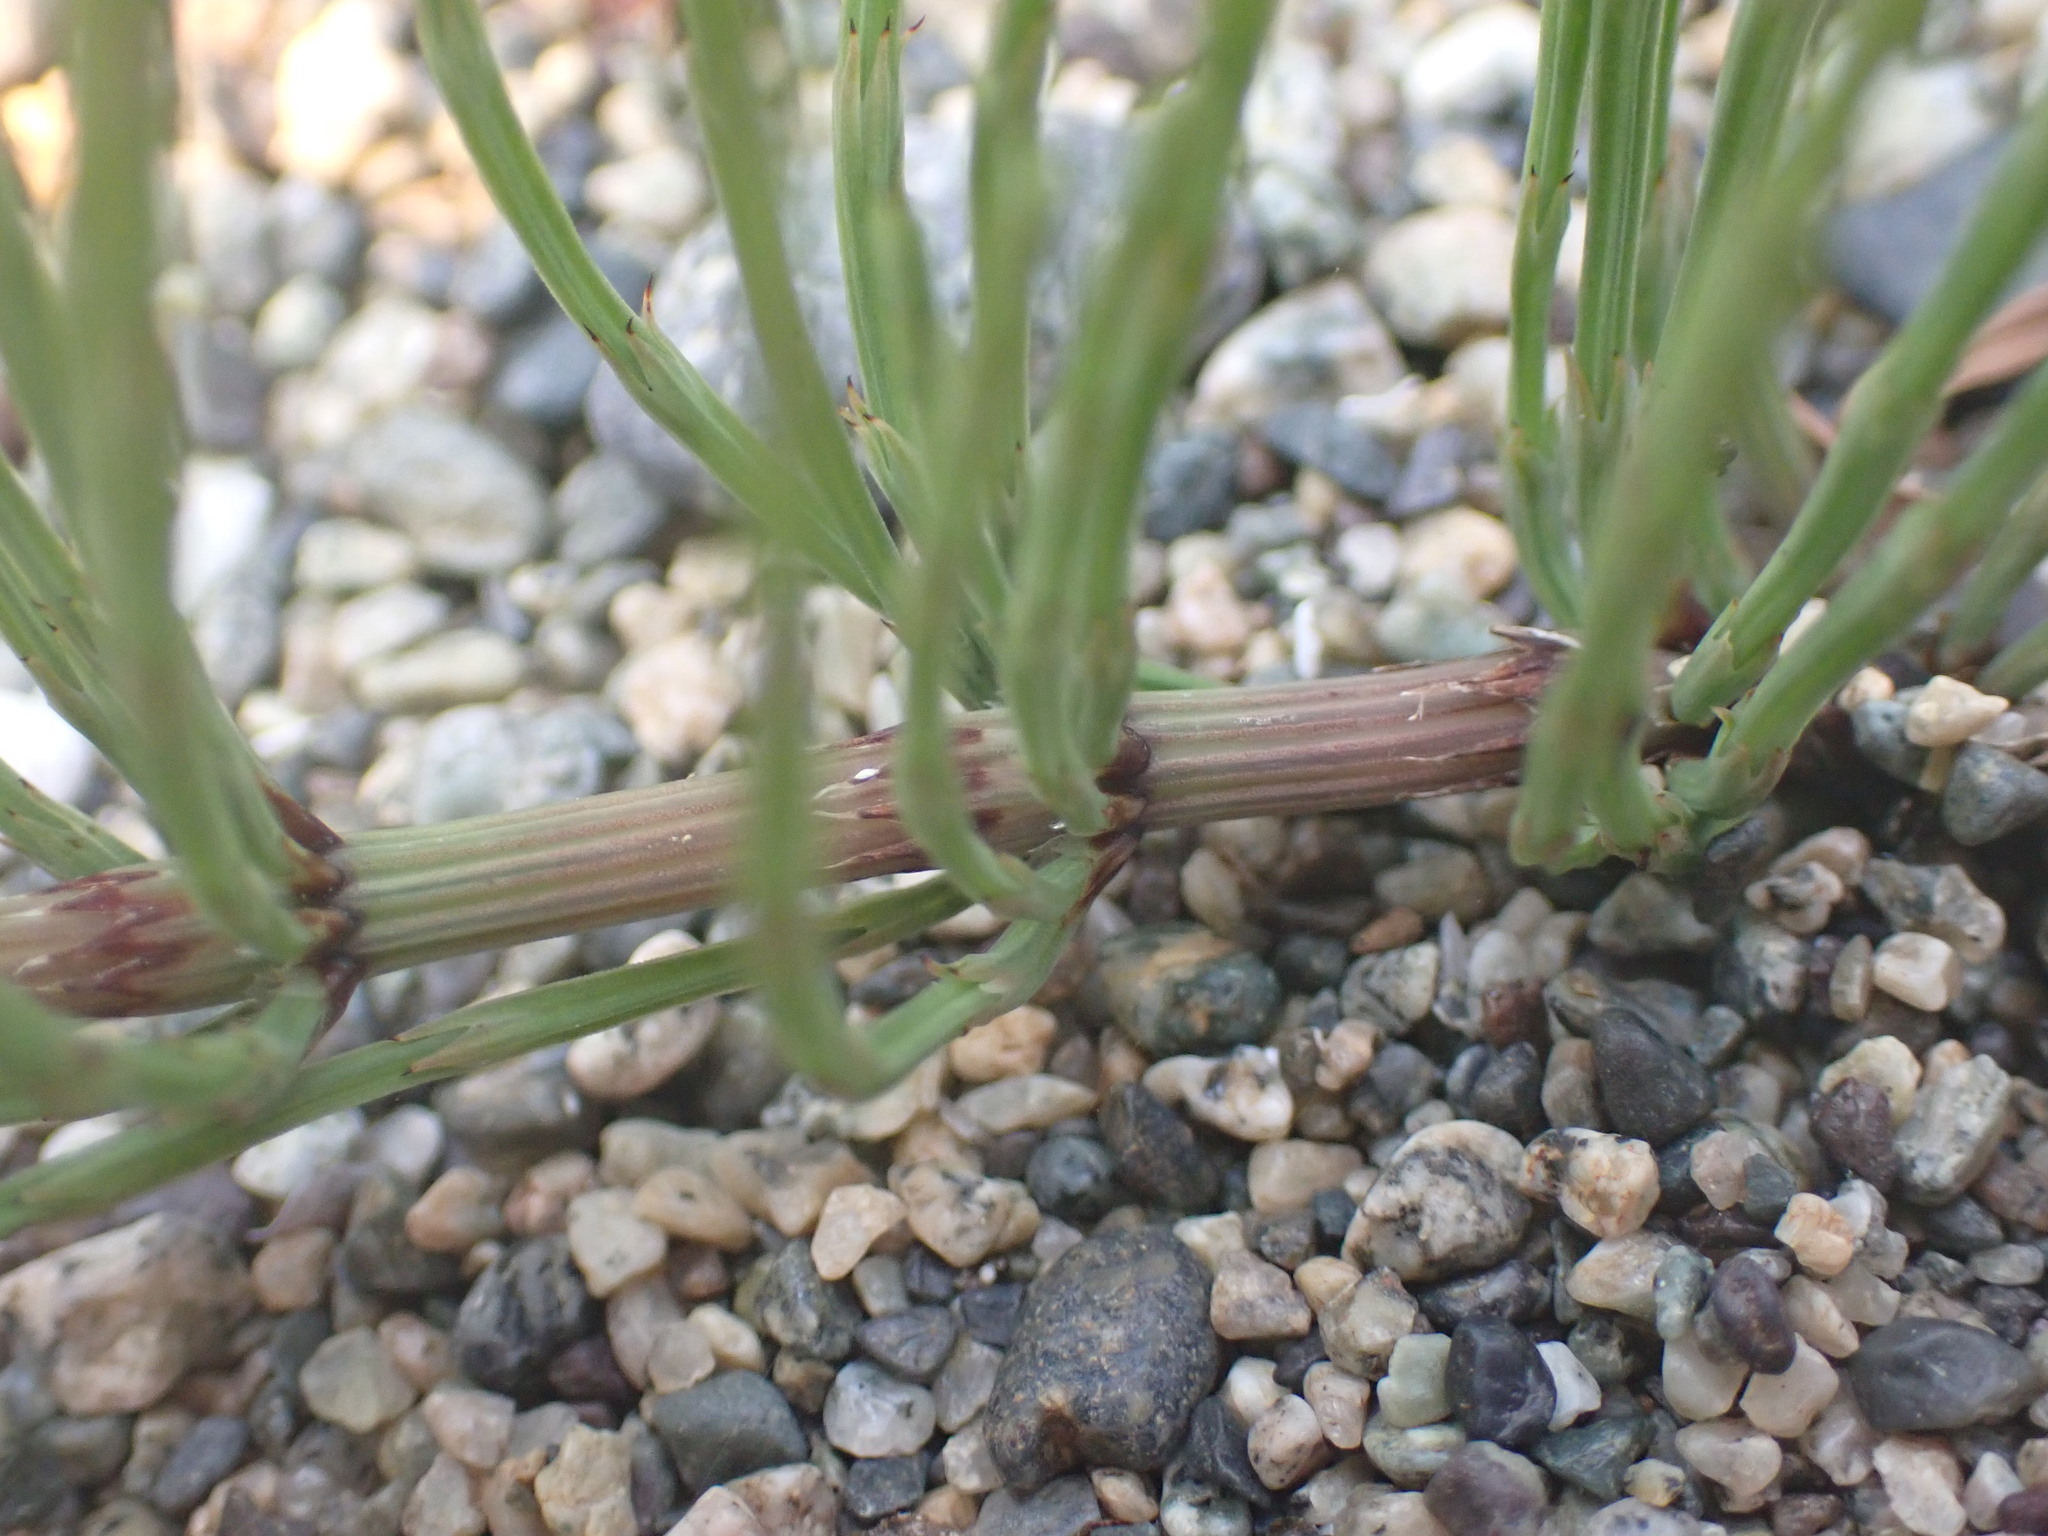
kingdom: Plantae
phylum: Tracheophyta
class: Polypodiopsida
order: Equisetales
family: Equisetaceae
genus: Equisetum
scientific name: Equisetum arvense
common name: Field horsetail
